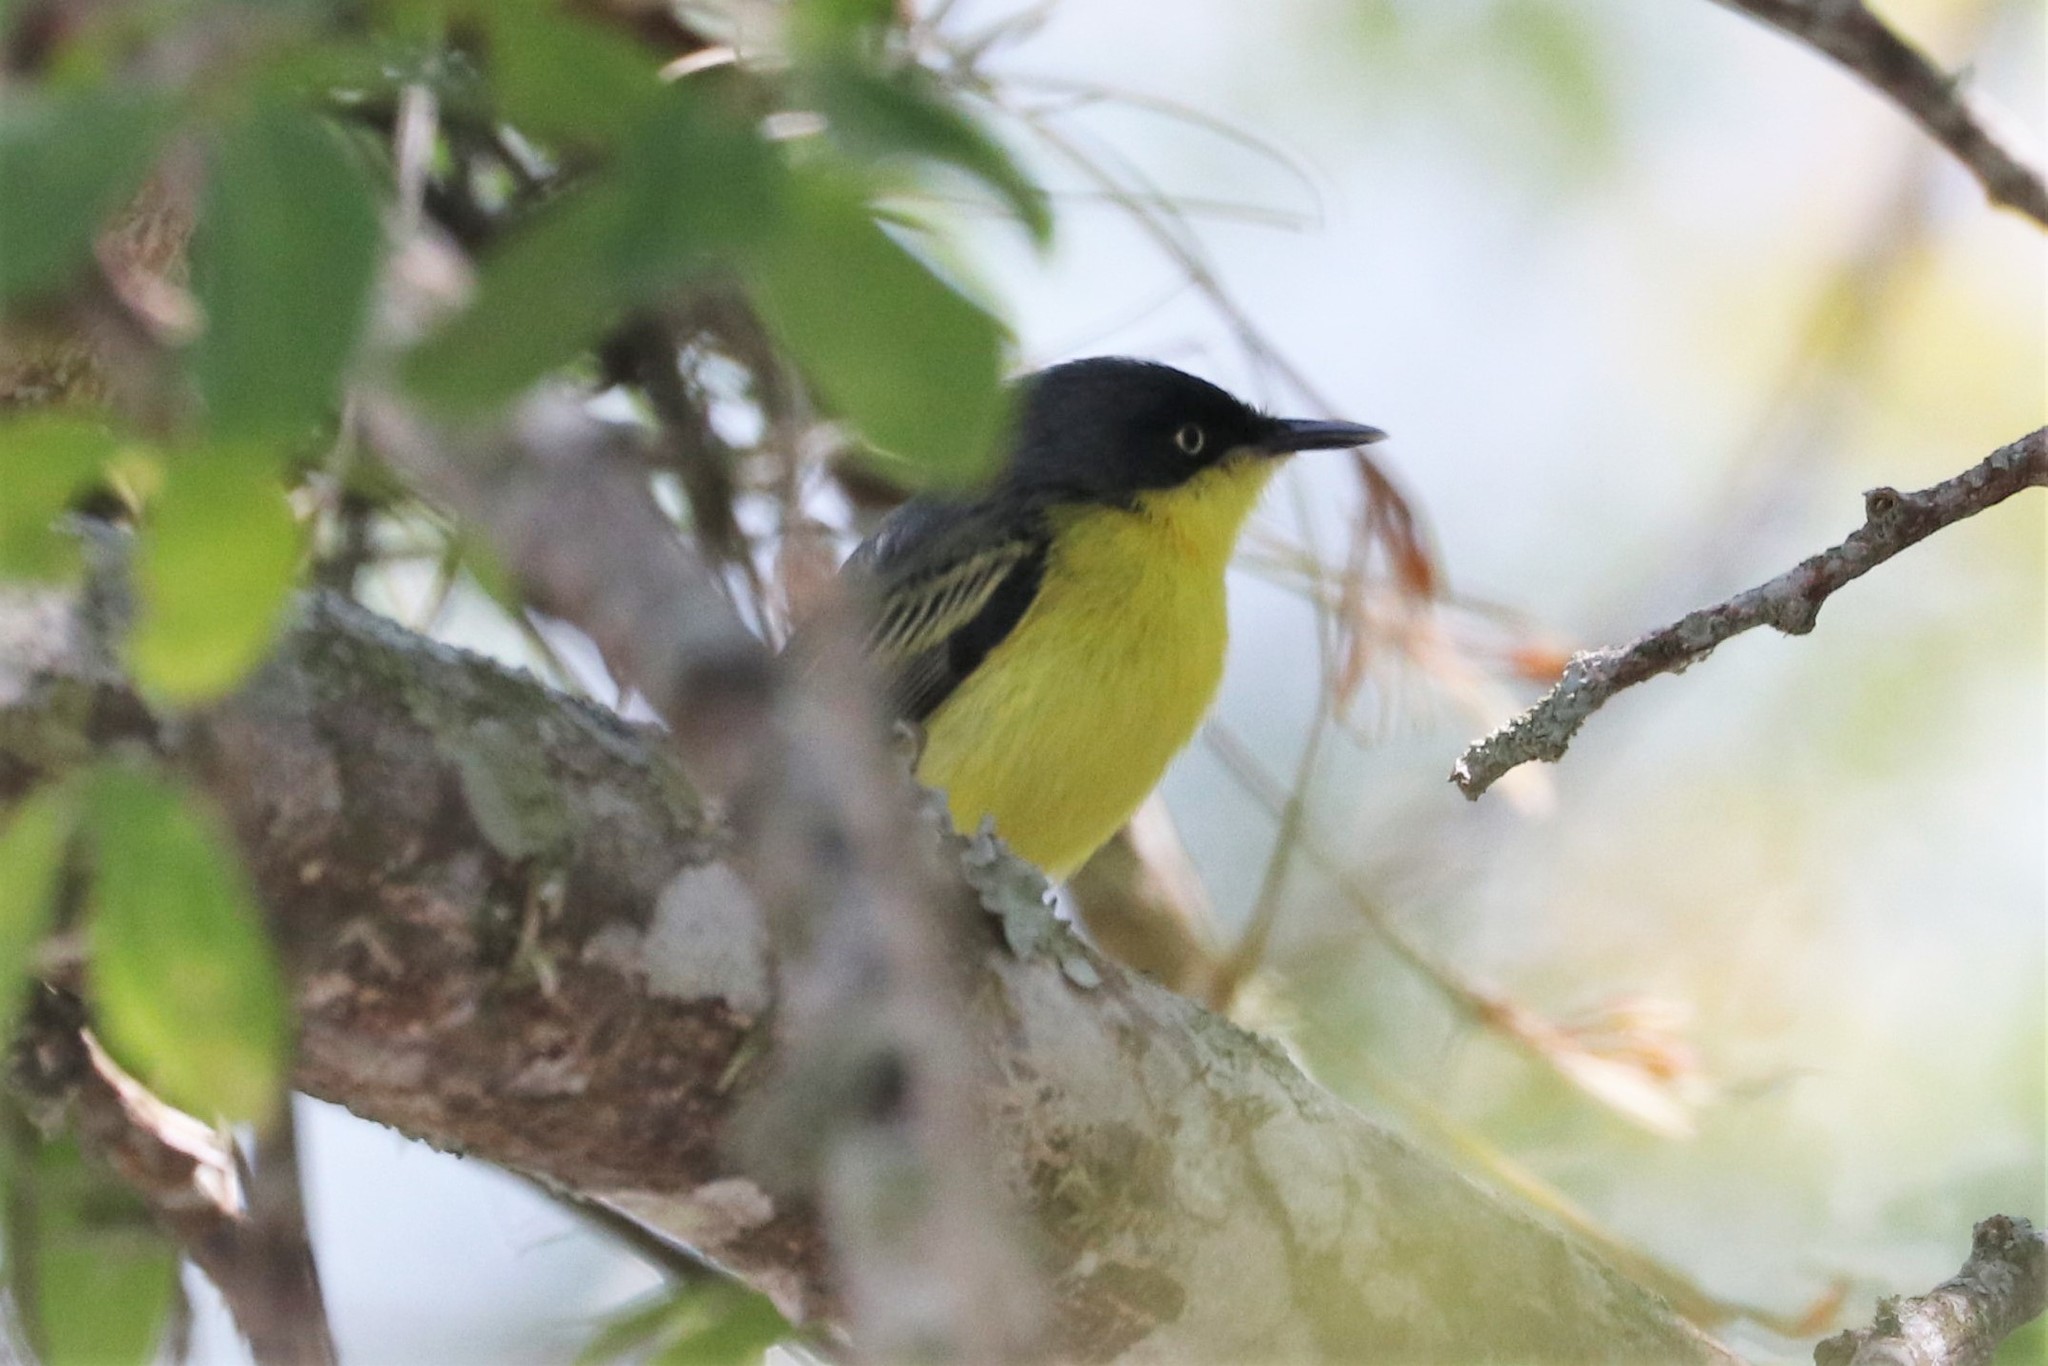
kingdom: Animalia
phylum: Chordata
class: Aves
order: Passeriformes
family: Tyrannidae
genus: Todirostrum
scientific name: Todirostrum cinereum
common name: Common tody-flycatcher
